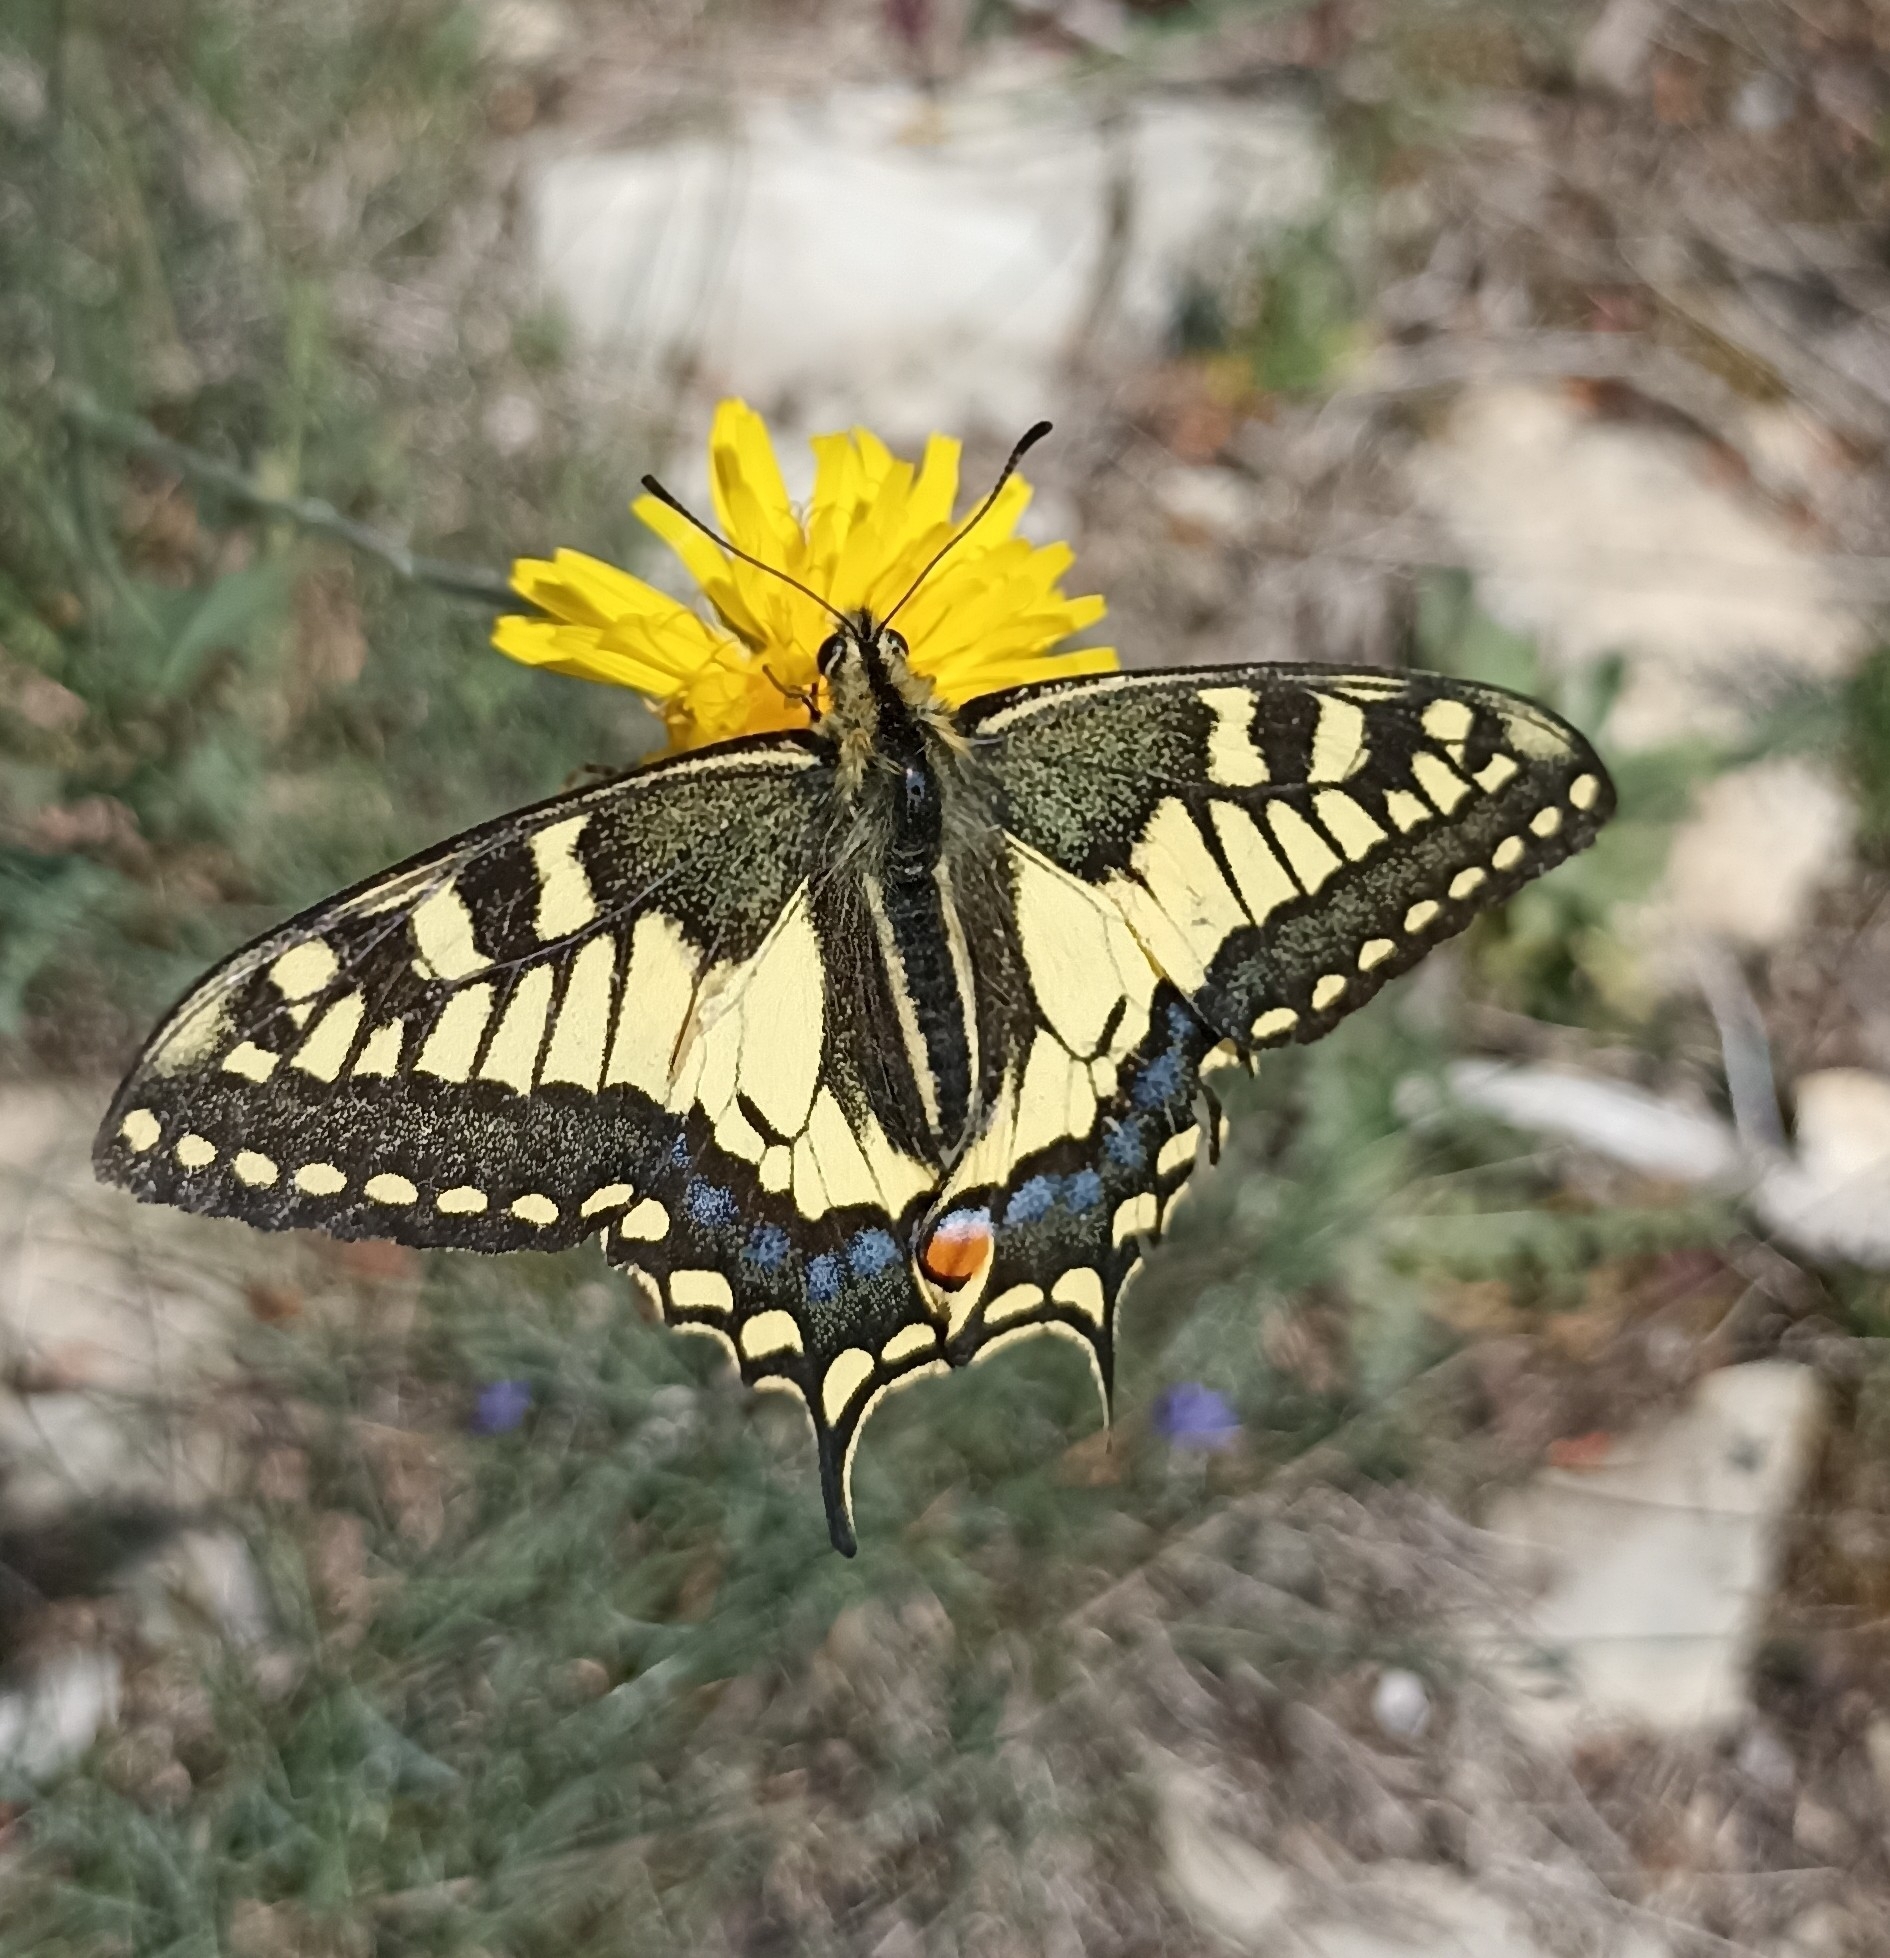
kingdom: Animalia
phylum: Arthropoda
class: Insecta
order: Lepidoptera
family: Papilionidae
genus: Papilio
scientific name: Papilio machaon
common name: Swallowtail
